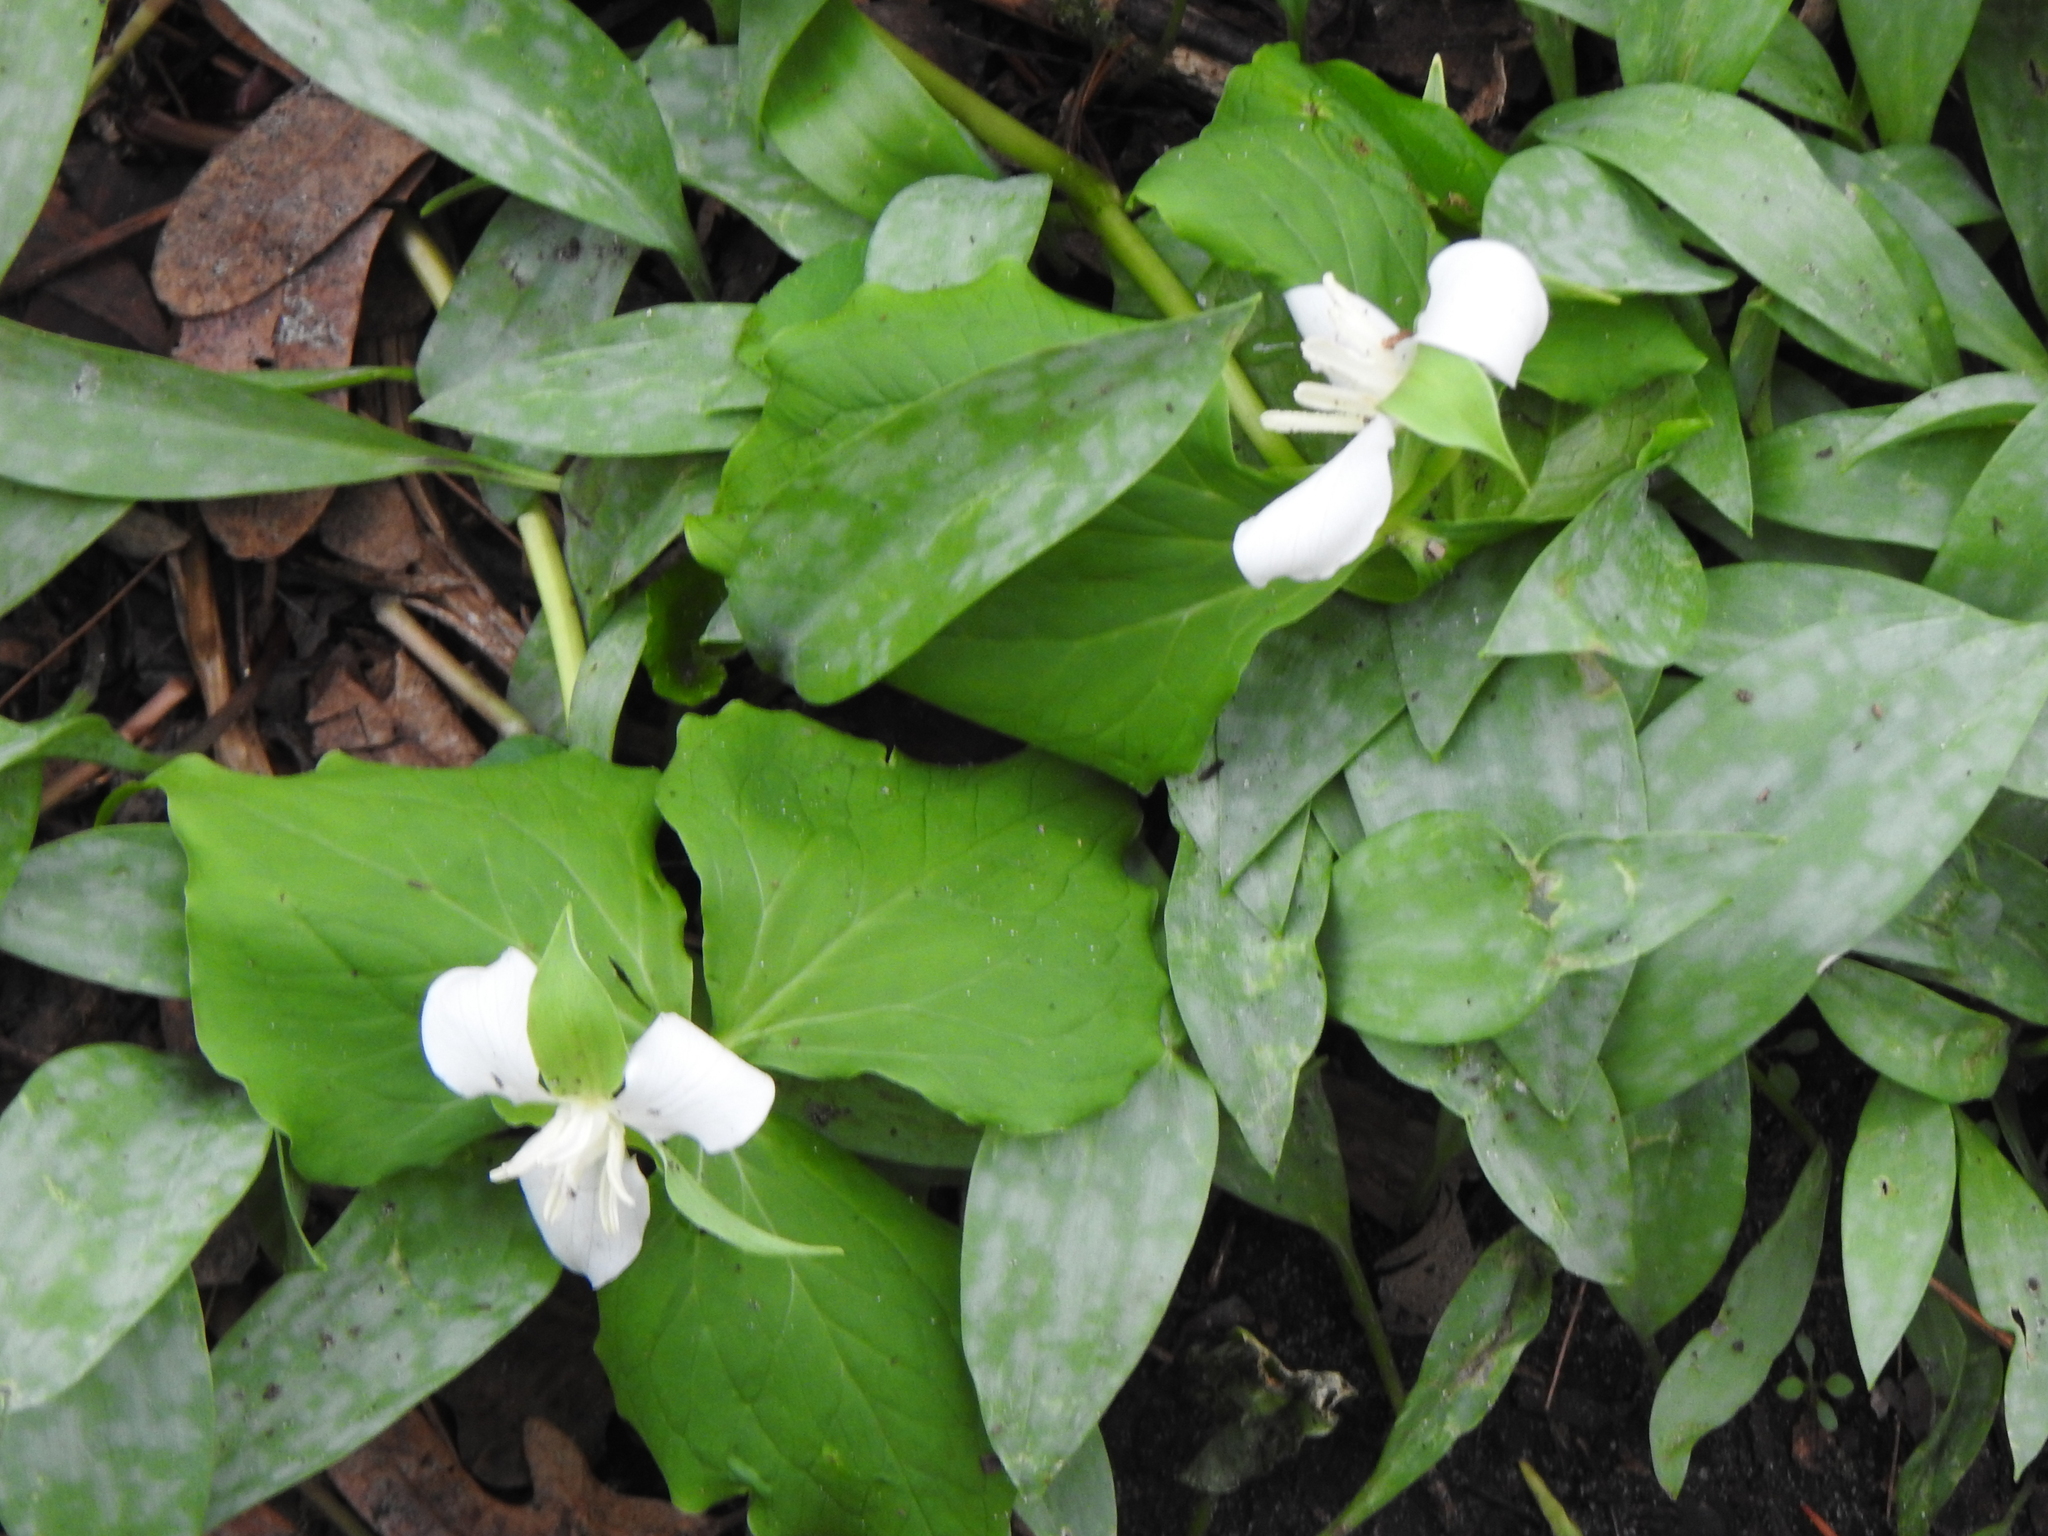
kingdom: Plantae
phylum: Tracheophyta
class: Liliopsida
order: Liliales
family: Melanthiaceae
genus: Trillium
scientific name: Trillium flexipes
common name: Drooping trillium
